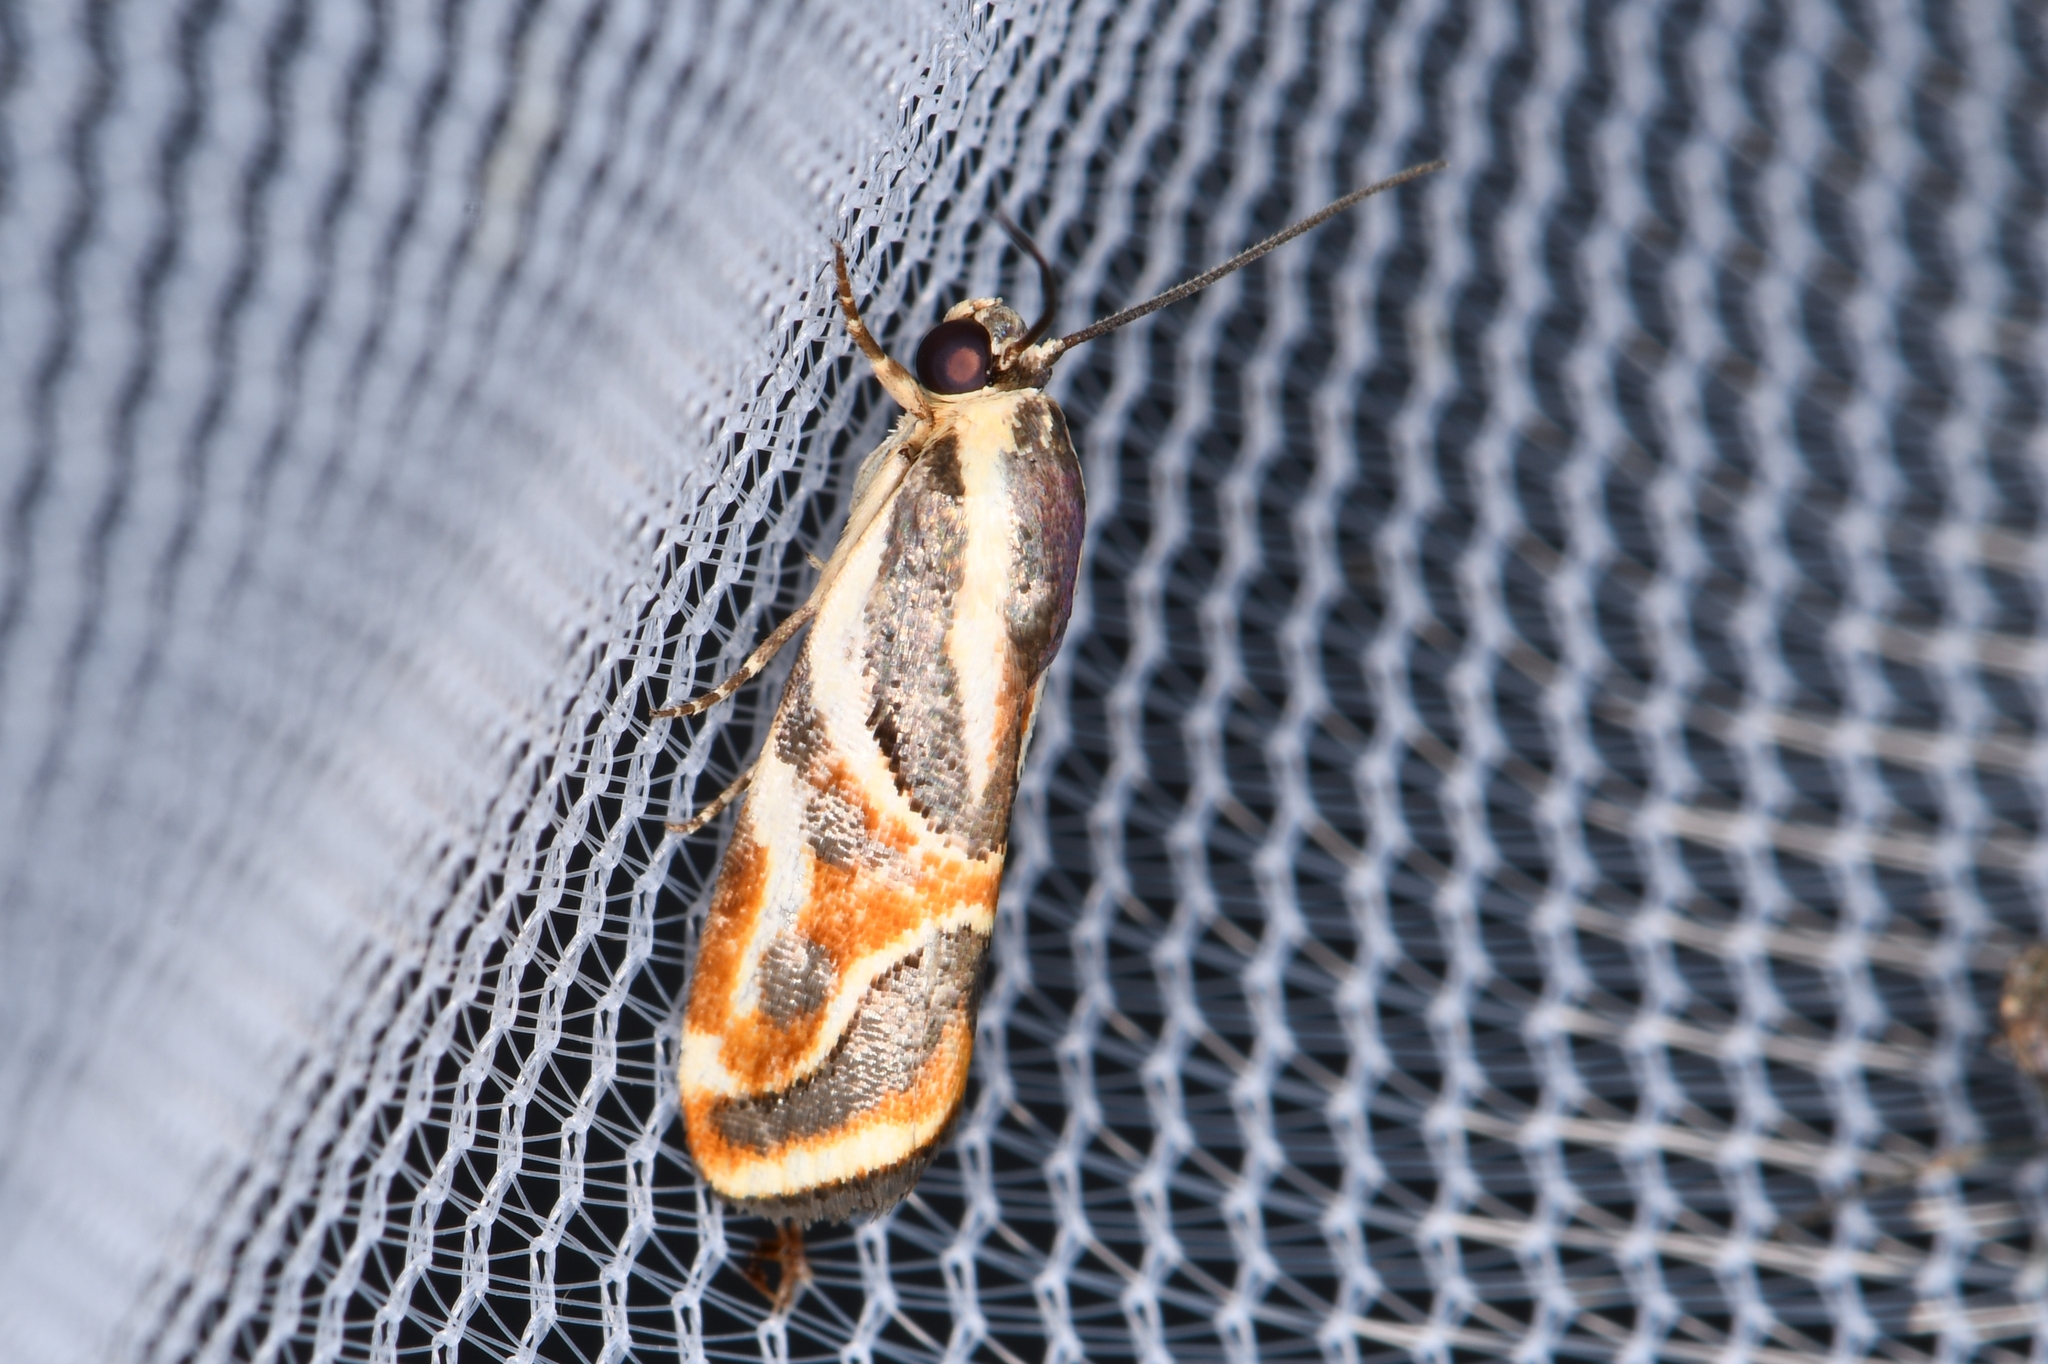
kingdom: Animalia
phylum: Arthropoda
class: Insecta
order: Lepidoptera
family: Noctuidae
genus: Spragueia
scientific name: Spragueia magnifica
